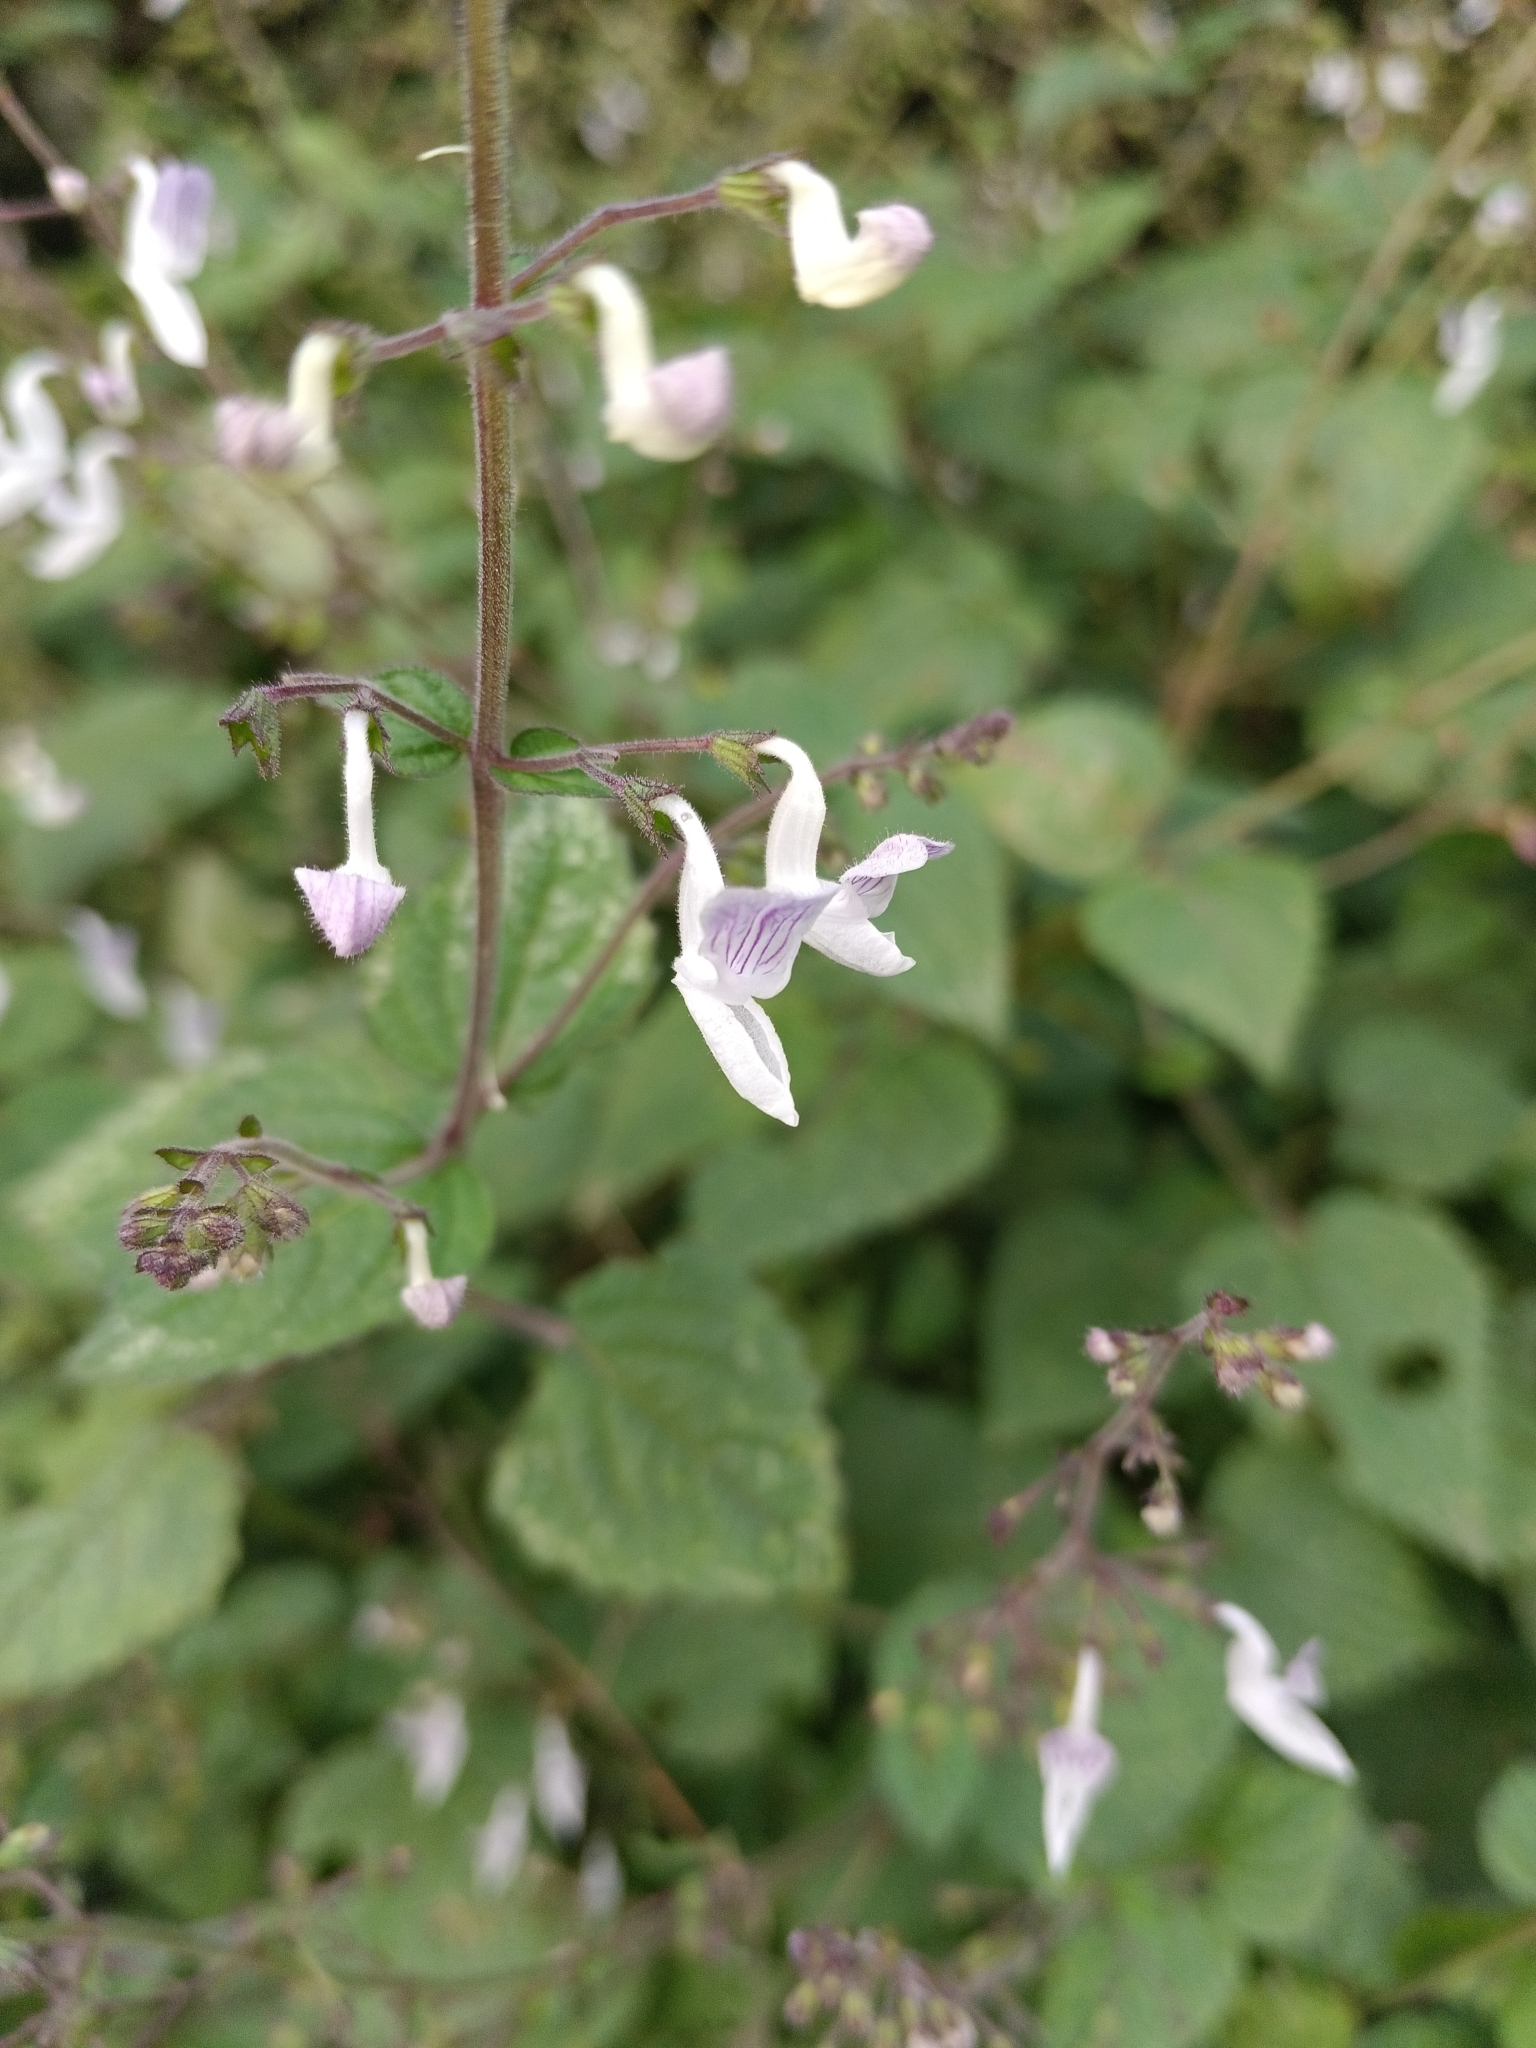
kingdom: Plantae
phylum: Tracheophyta
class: Magnoliopsida
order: Lamiales
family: Lamiaceae
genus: Equilabium
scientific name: Equilabium laxiflorum
